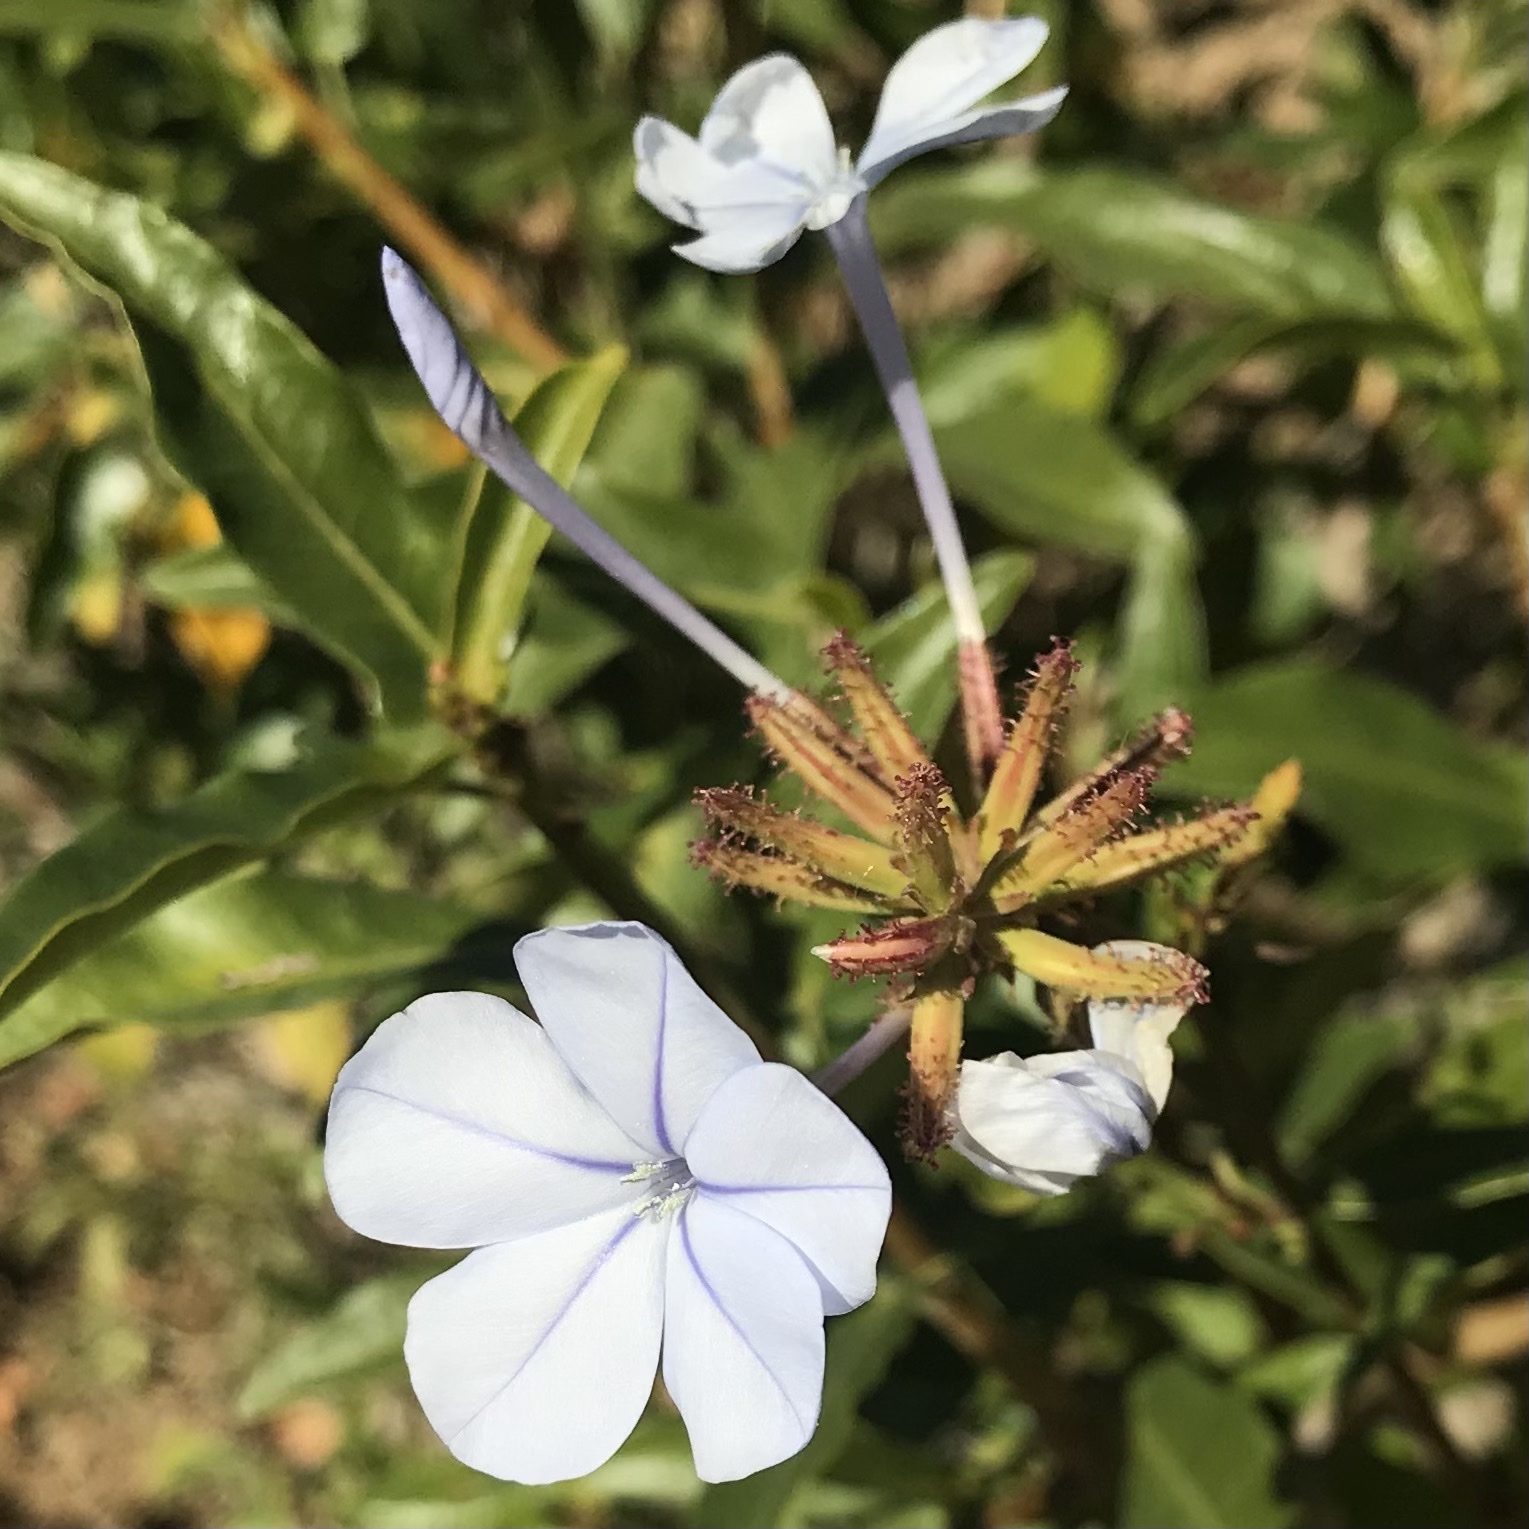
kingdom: Plantae
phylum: Tracheophyta
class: Magnoliopsida
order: Caryophyllales
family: Plumbaginaceae
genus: Plumbago
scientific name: Plumbago auriculata
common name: Cape leadwort
